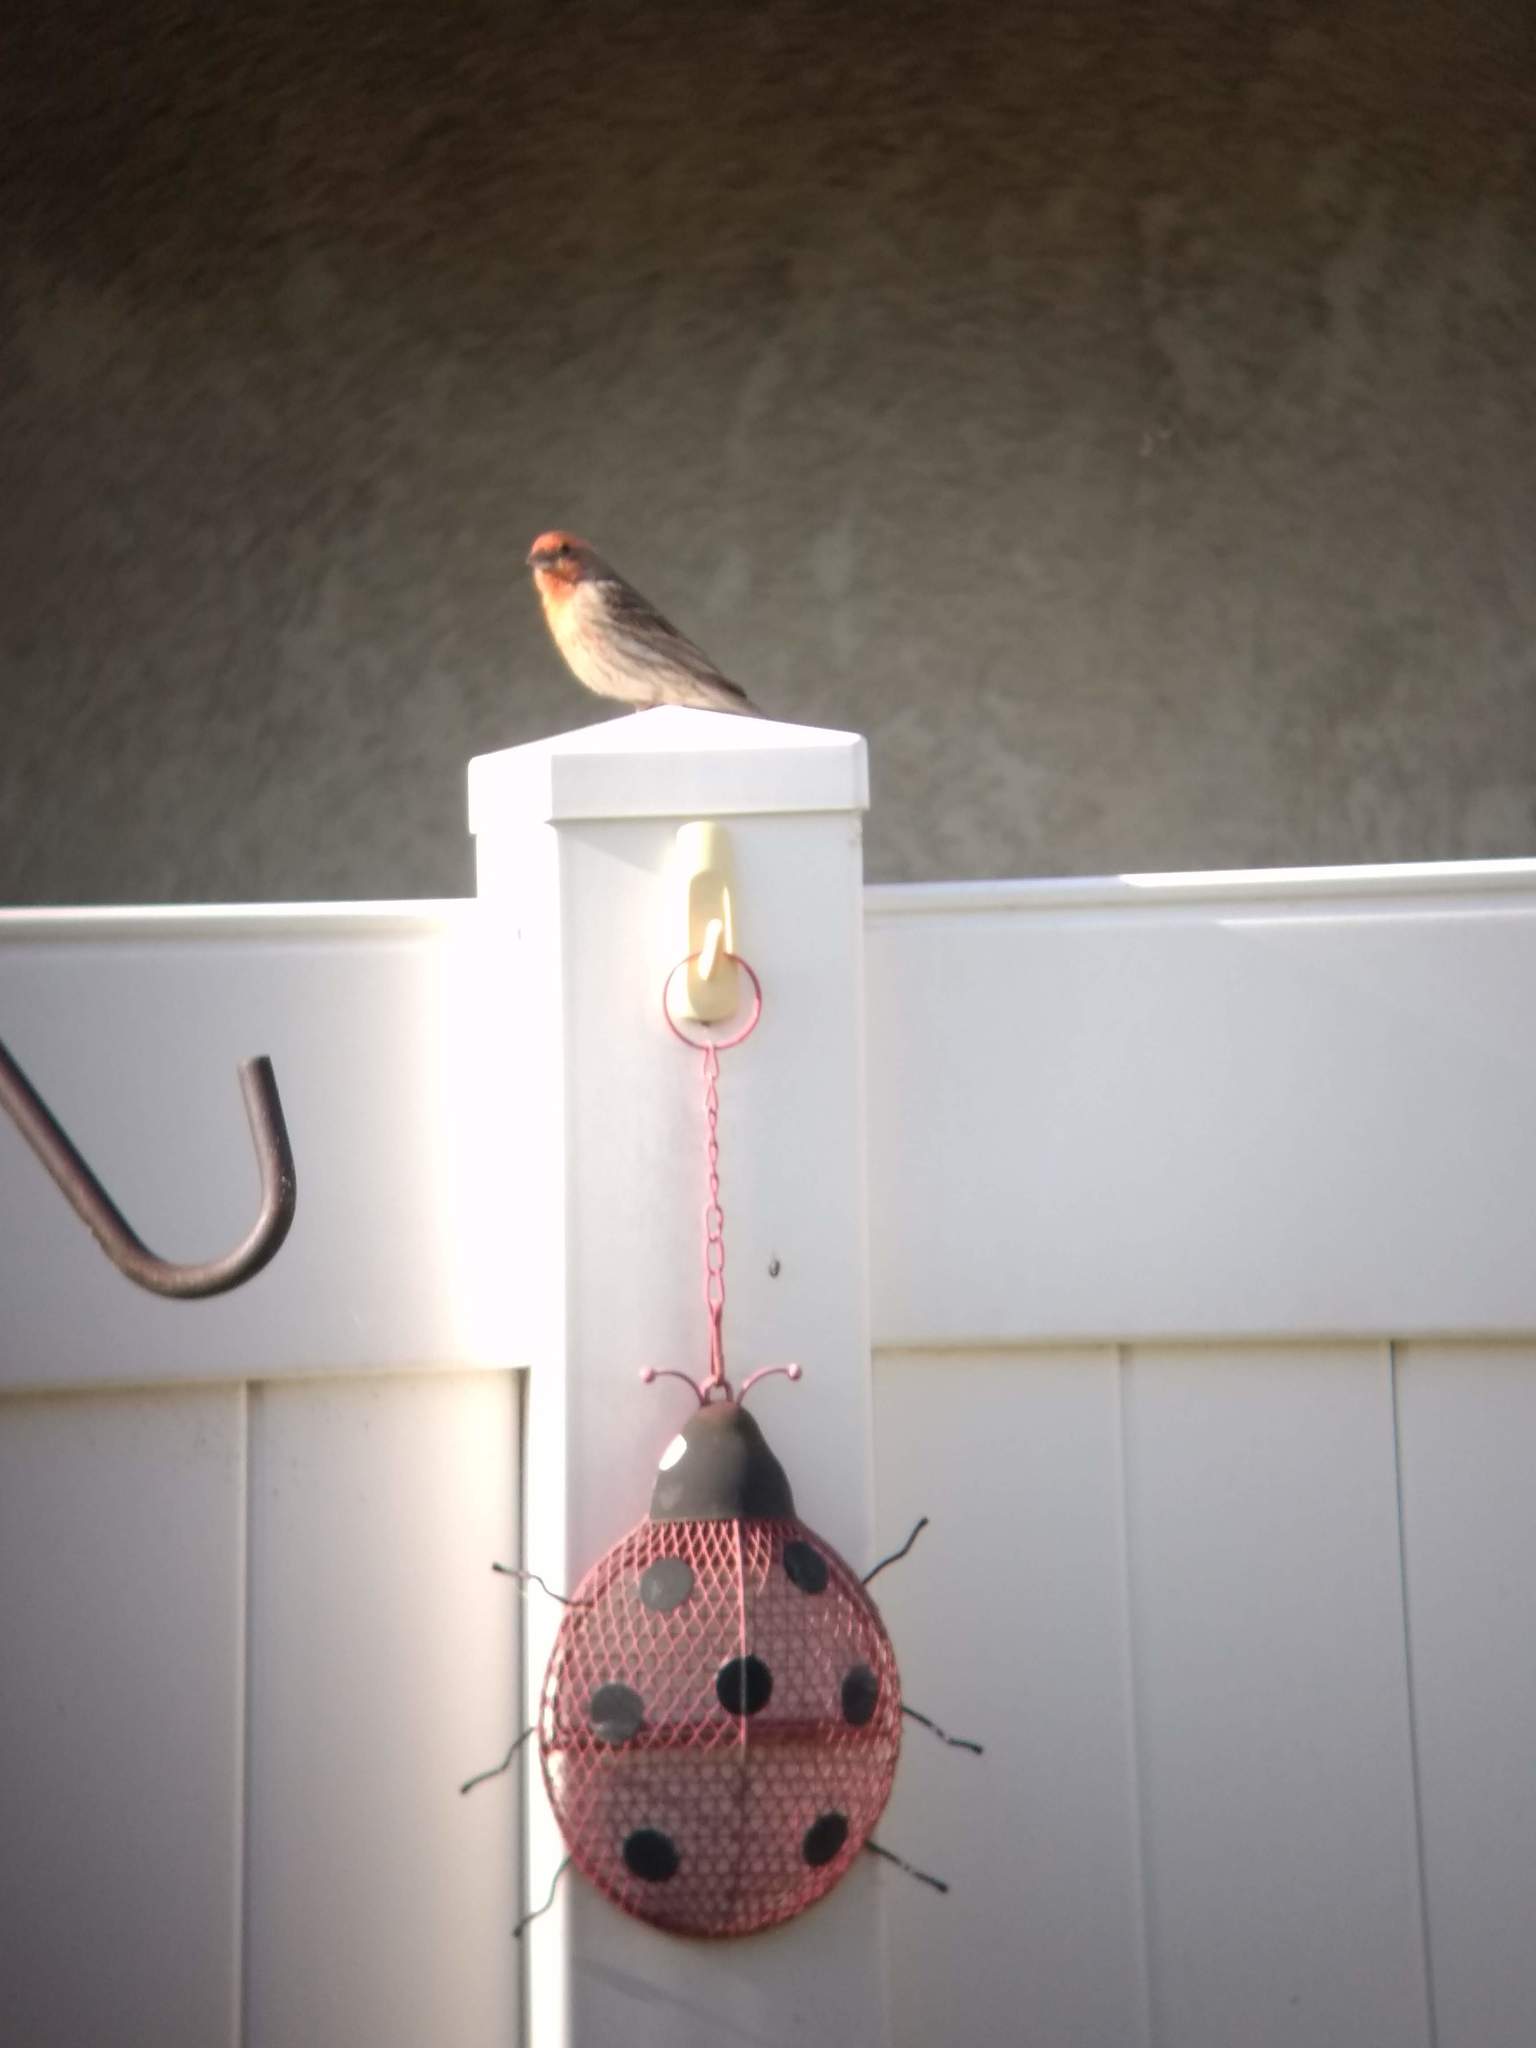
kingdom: Animalia
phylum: Chordata
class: Aves
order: Passeriformes
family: Fringillidae
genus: Haemorhous
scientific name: Haemorhous mexicanus
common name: House finch
